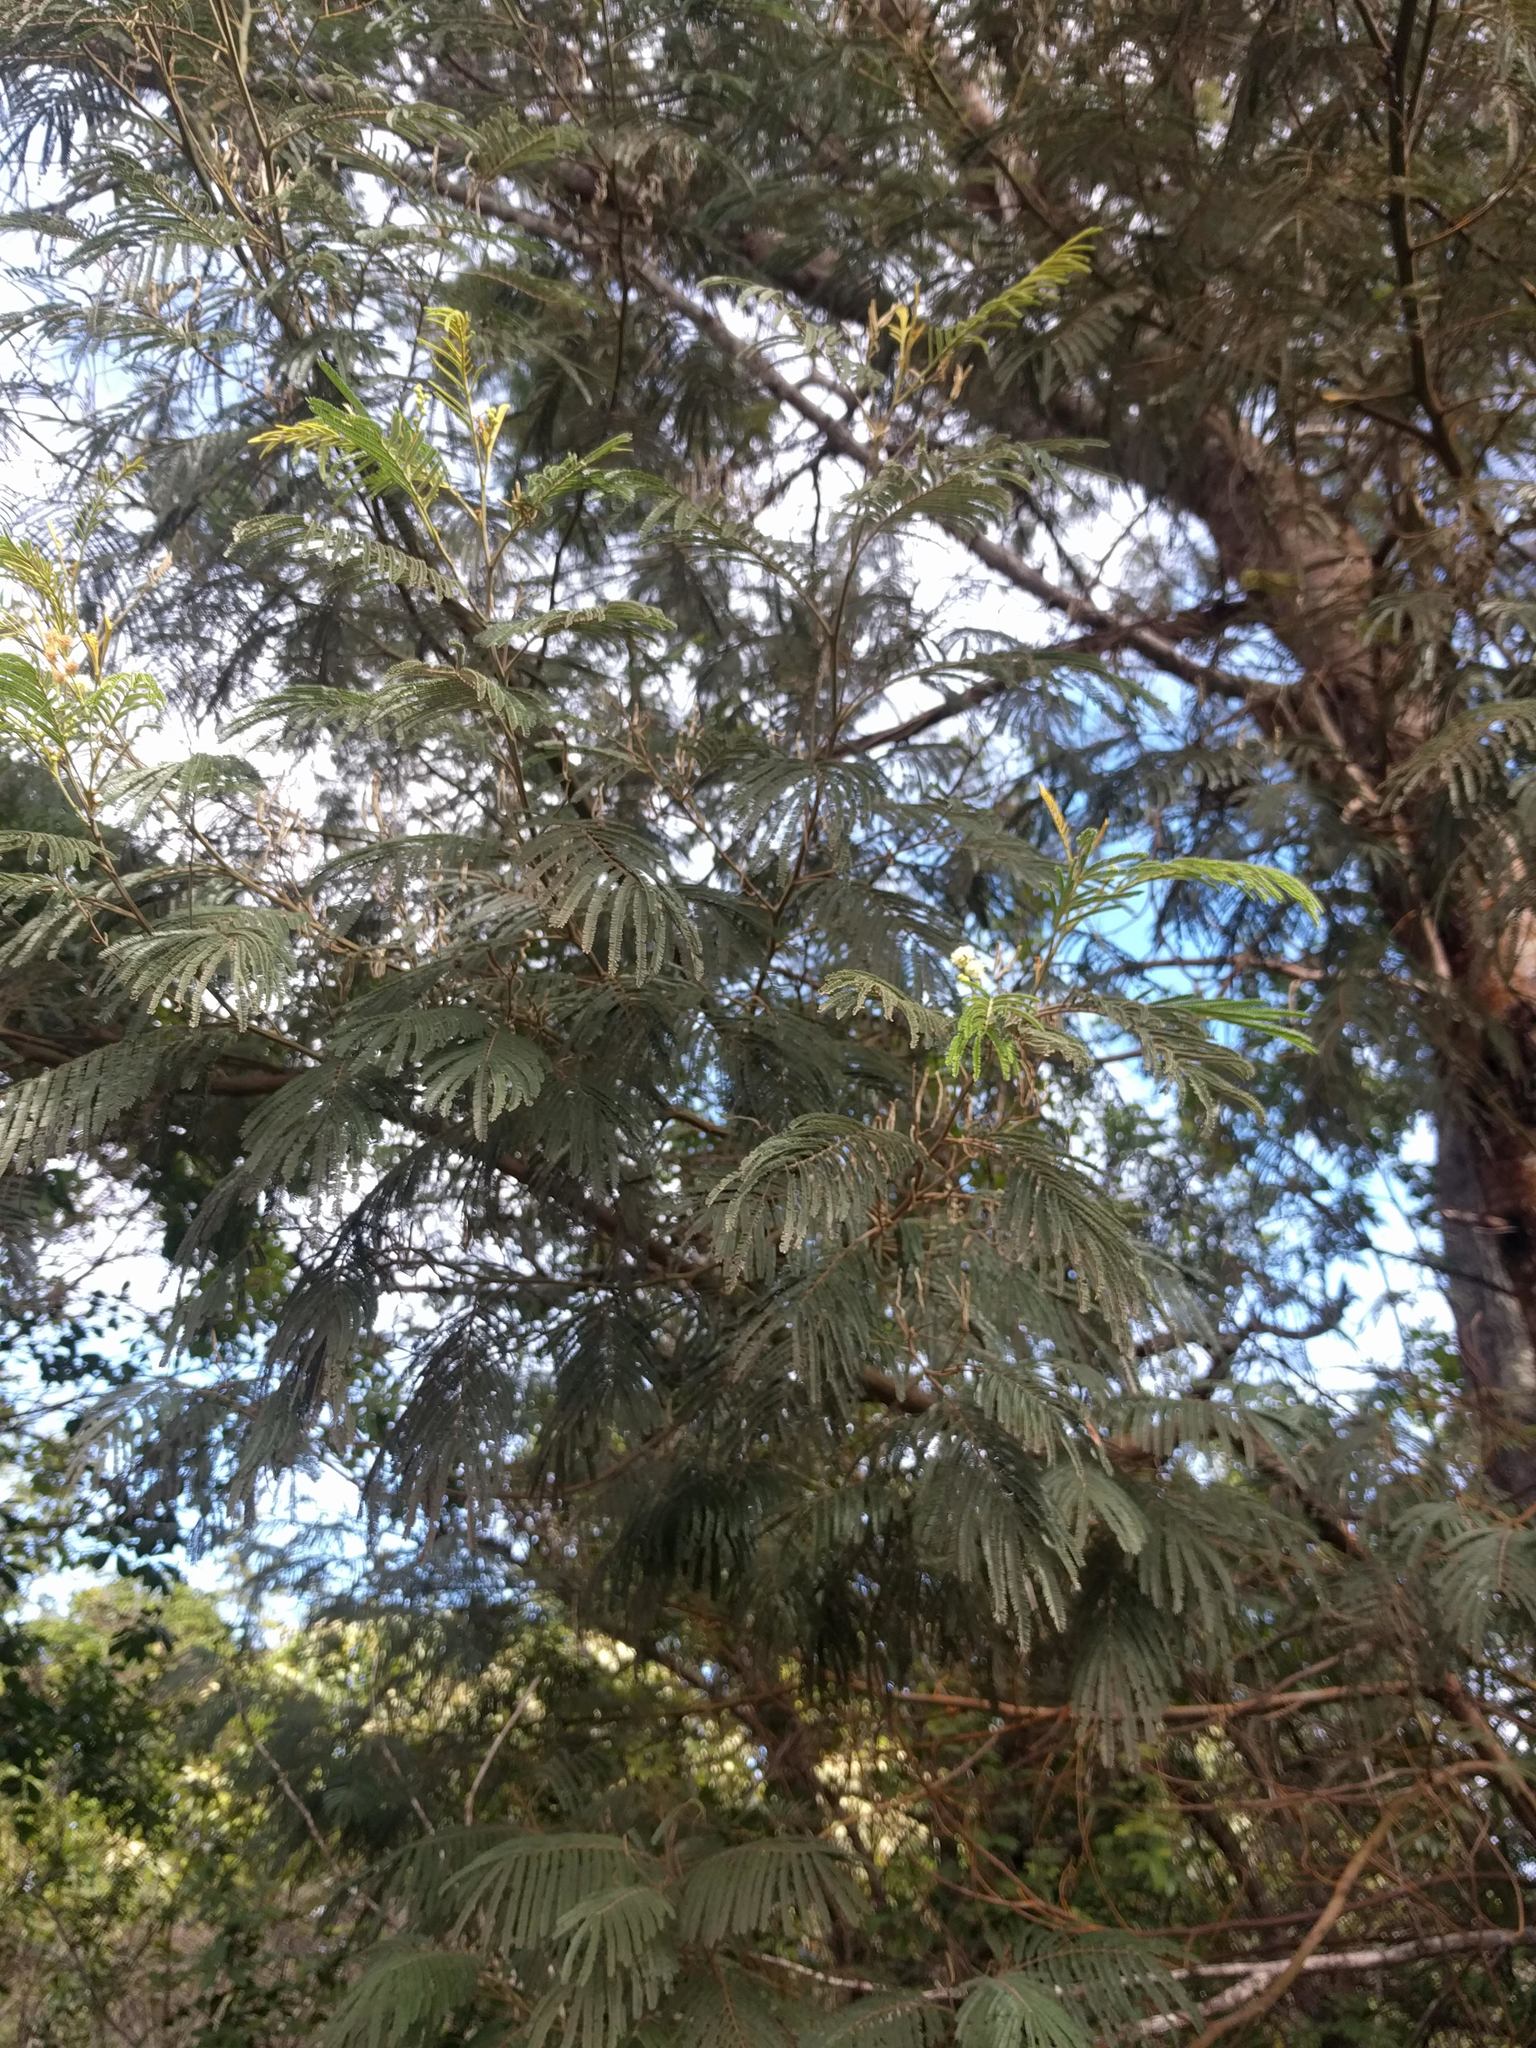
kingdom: Plantae
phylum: Tracheophyta
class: Magnoliopsida
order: Fabales
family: Fabaceae
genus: Acacia
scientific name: Acacia mearnsii
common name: Black wattle
